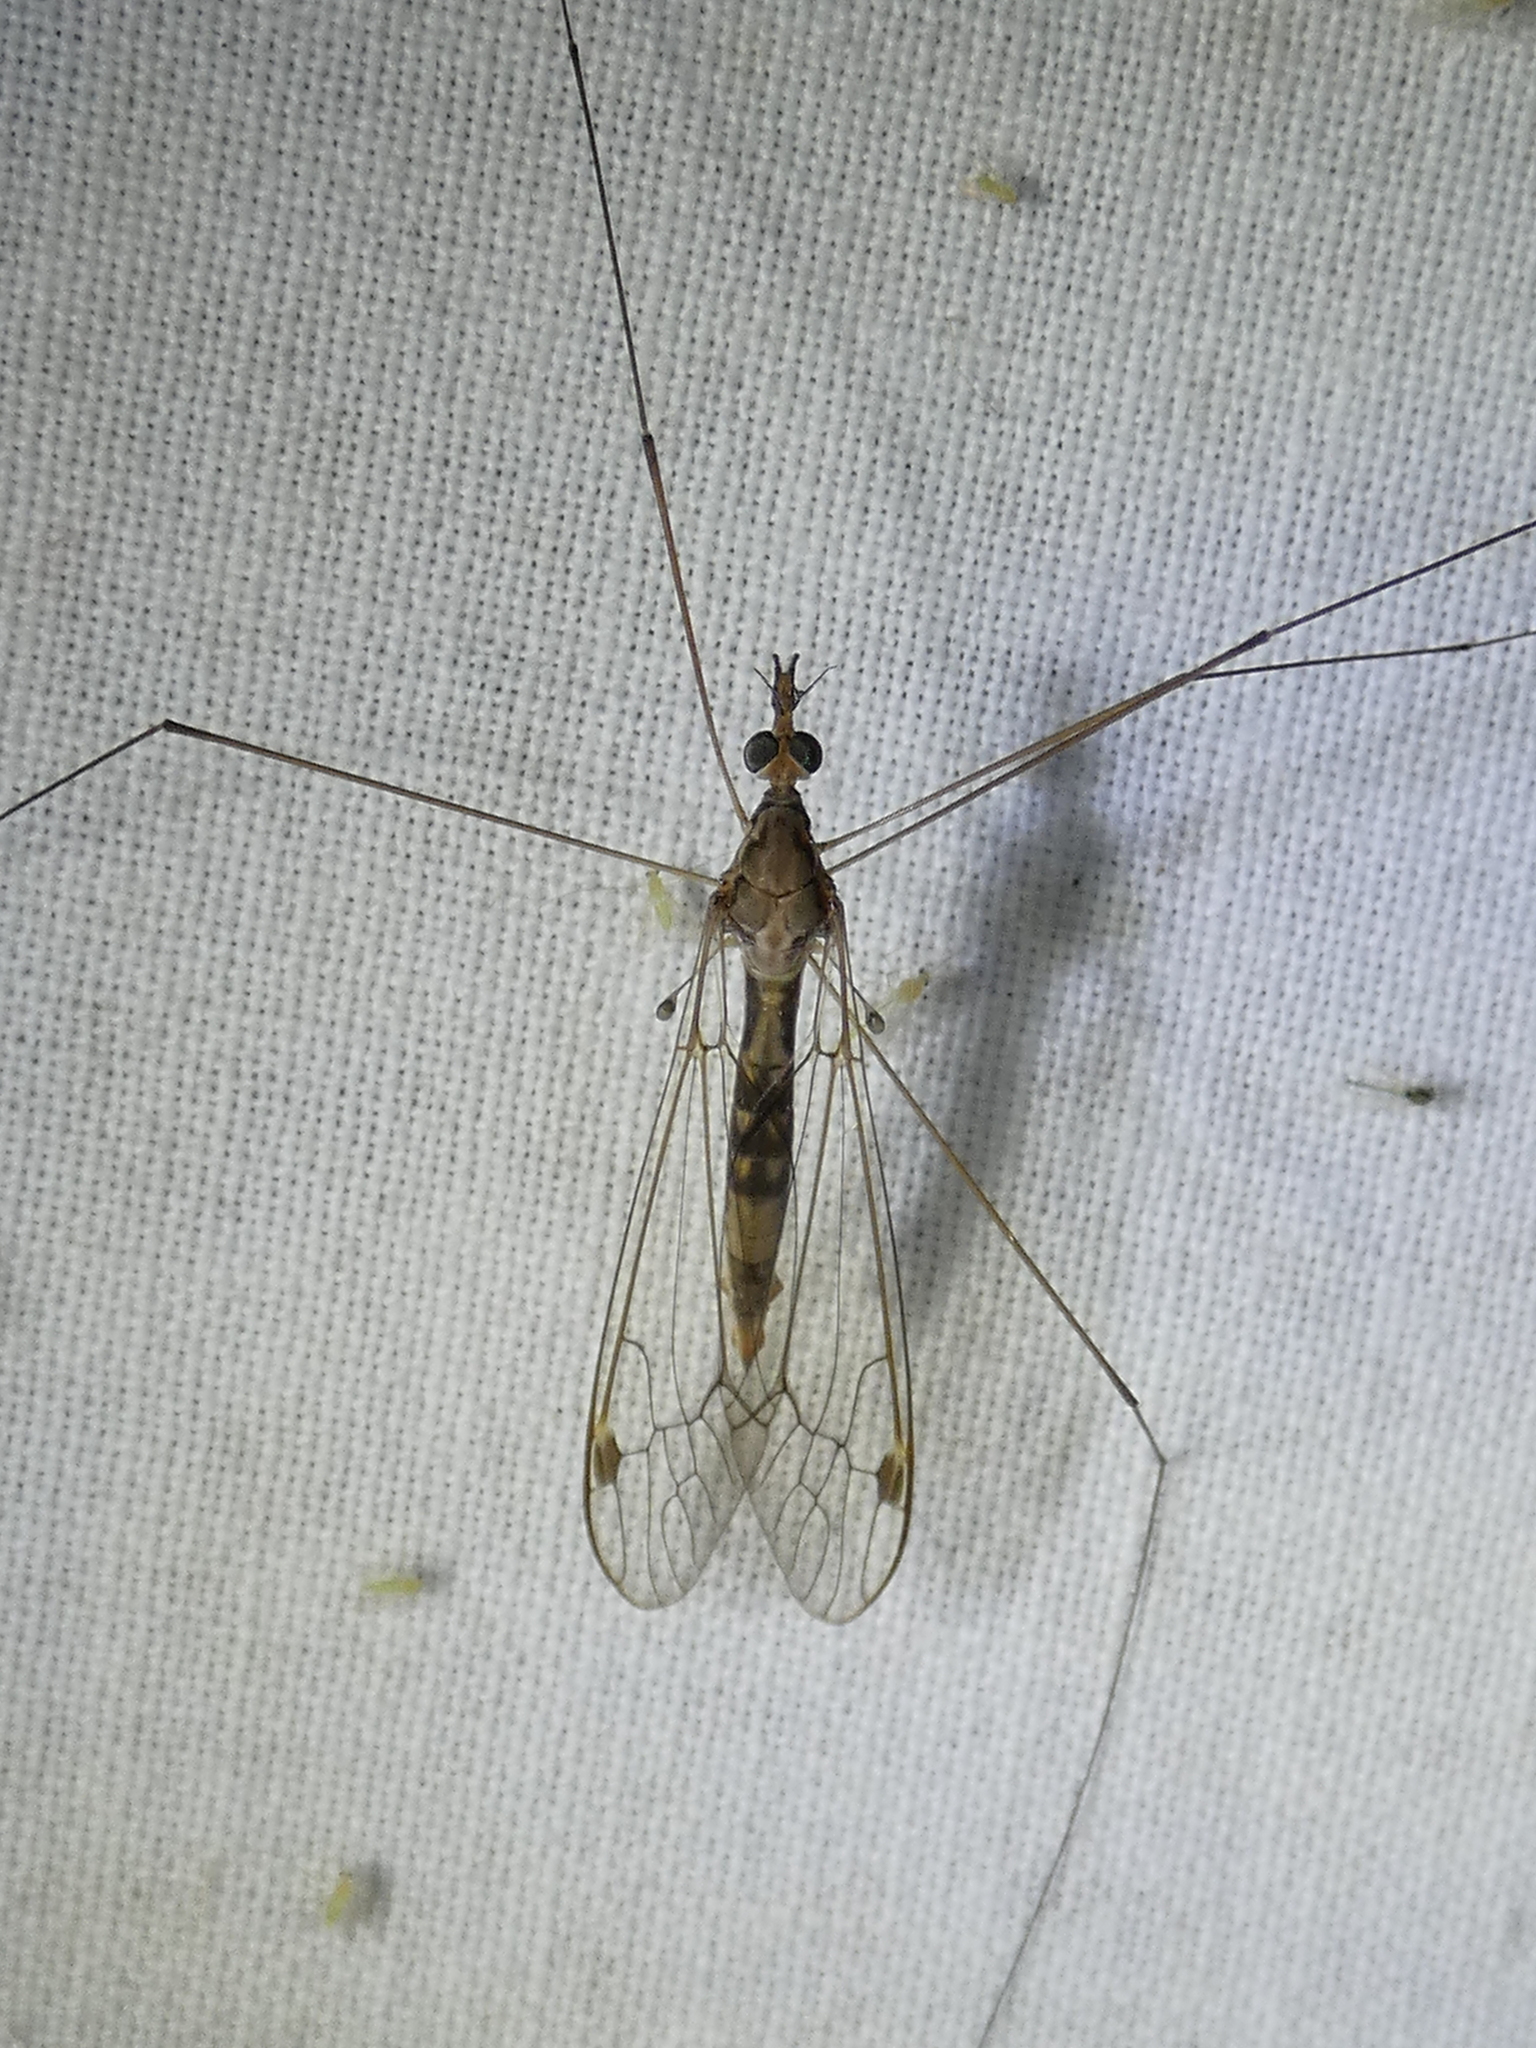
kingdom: Animalia
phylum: Arthropoda
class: Insecta
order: Diptera
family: Tipulidae
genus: Maekistocera
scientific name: Maekistocera longipennis
